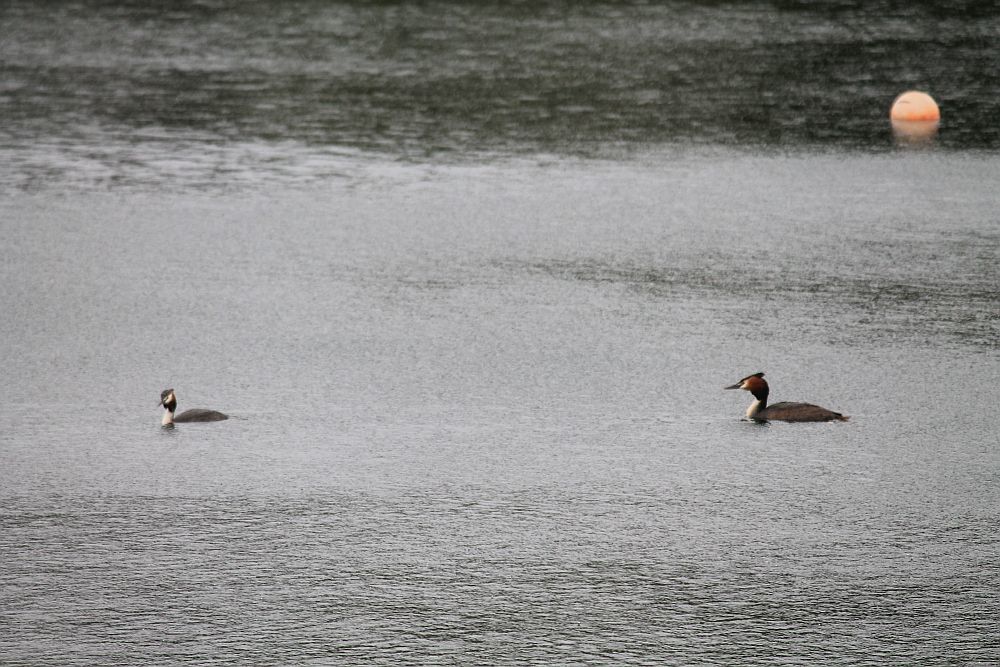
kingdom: Animalia
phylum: Chordata
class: Aves
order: Podicipediformes
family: Podicipedidae
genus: Podiceps
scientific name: Podiceps cristatus
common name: Great crested grebe
